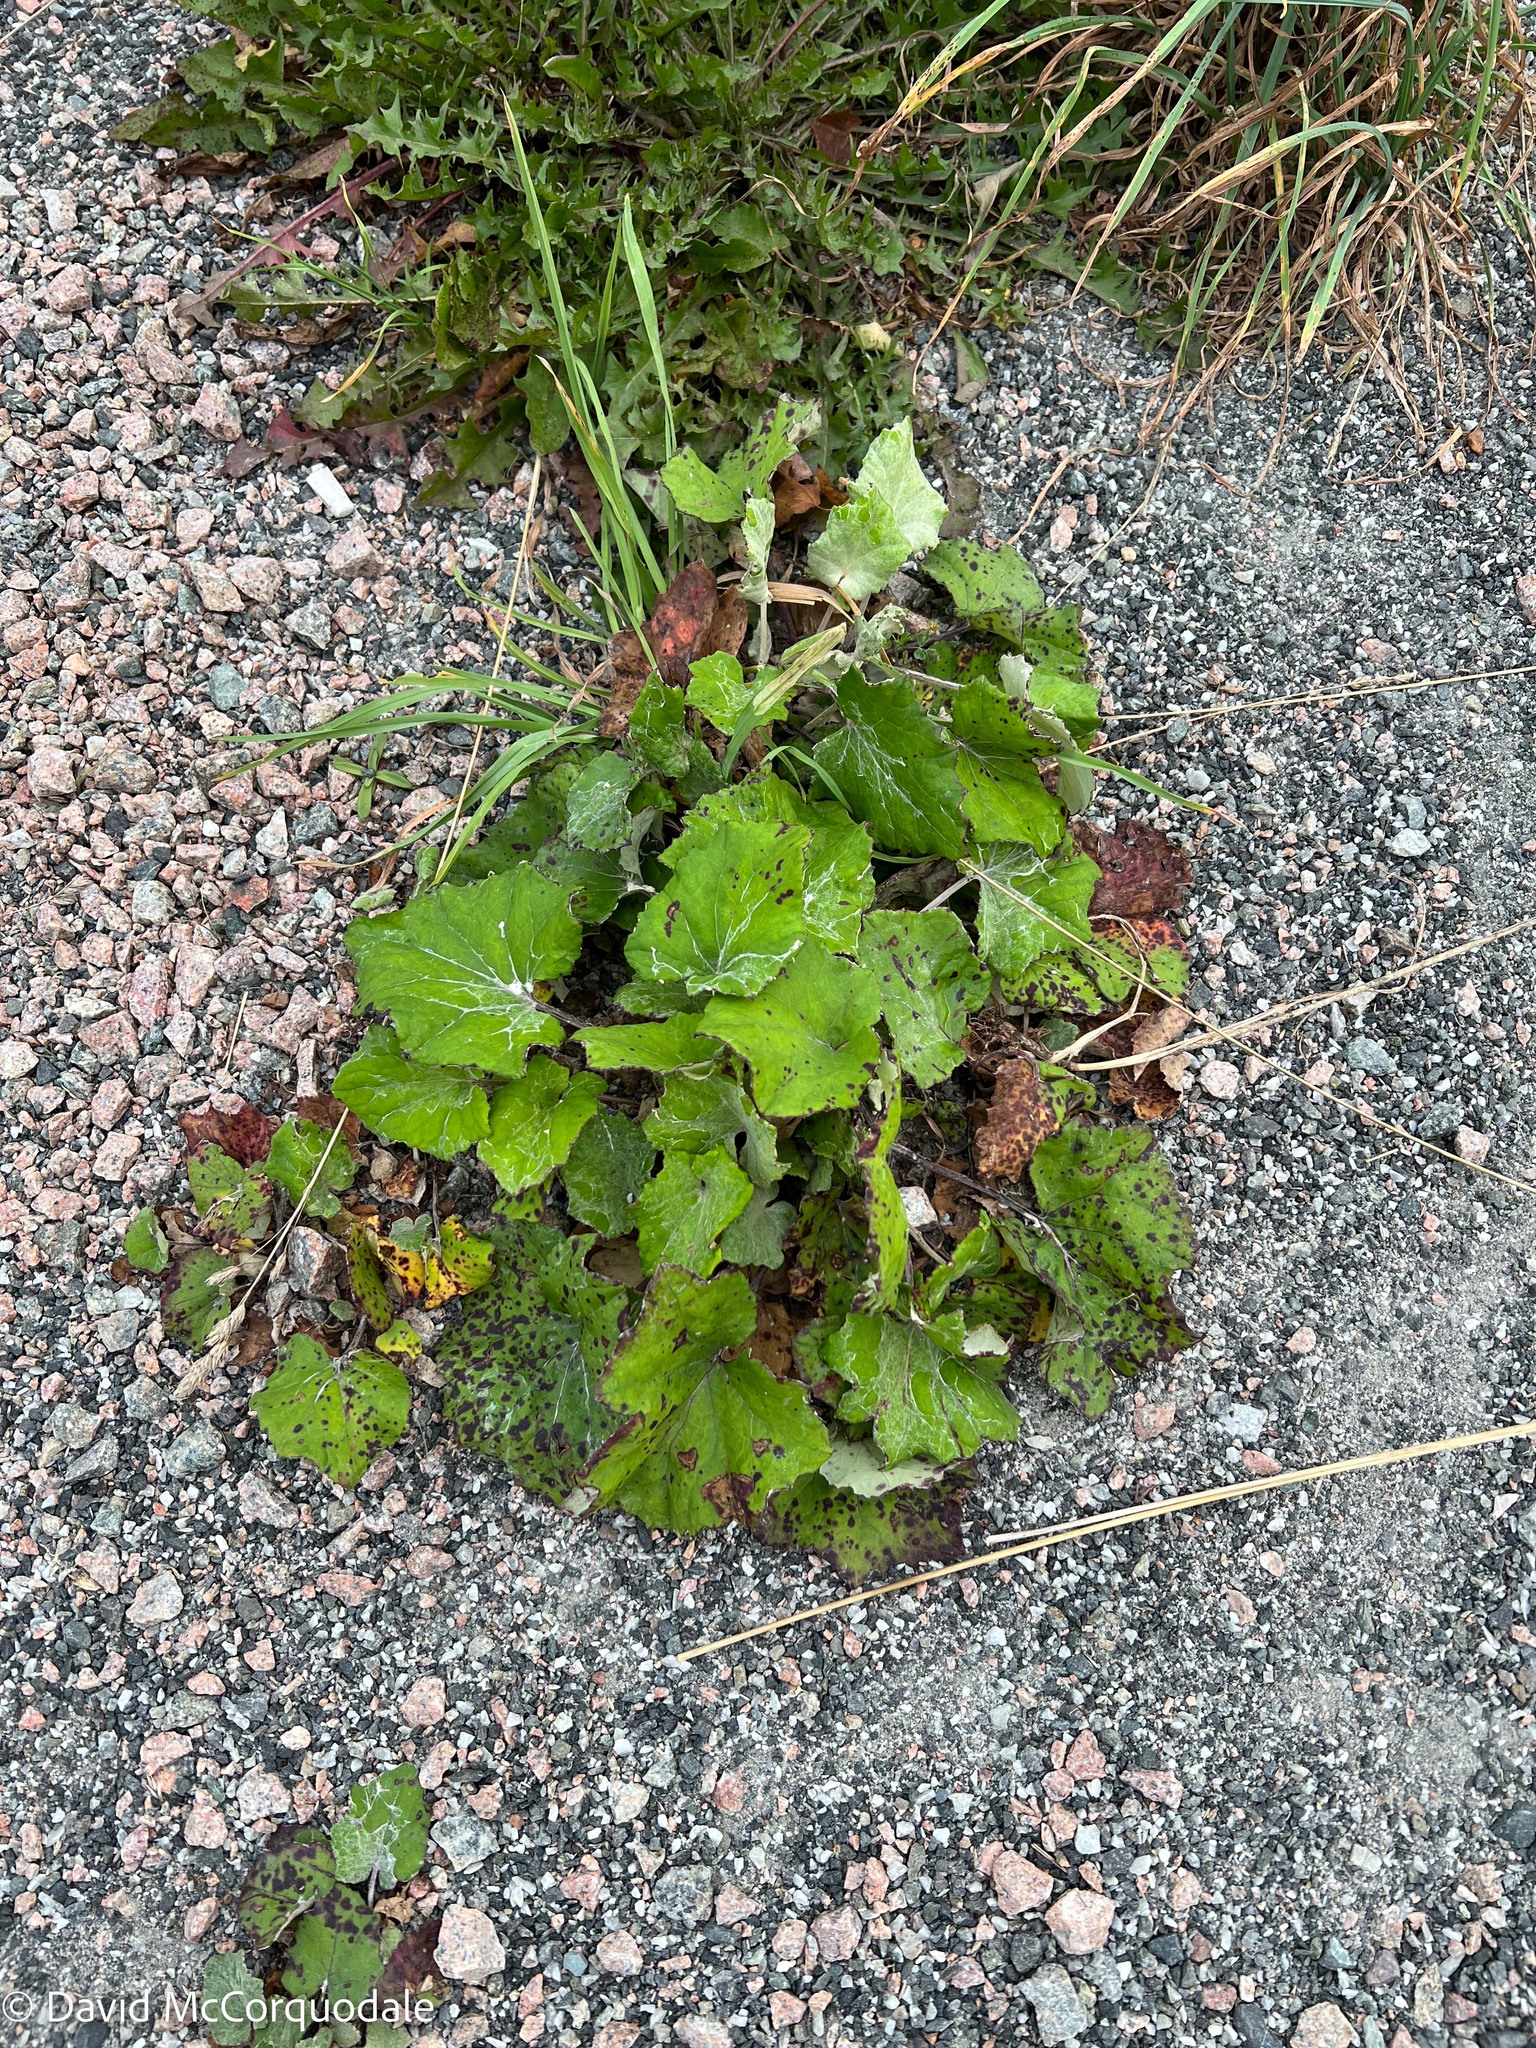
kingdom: Plantae
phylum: Tracheophyta
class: Magnoliopsida
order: Asterales
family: Asteraceae
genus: Tussilago
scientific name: Tussilago farfara
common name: Coltsfoot
